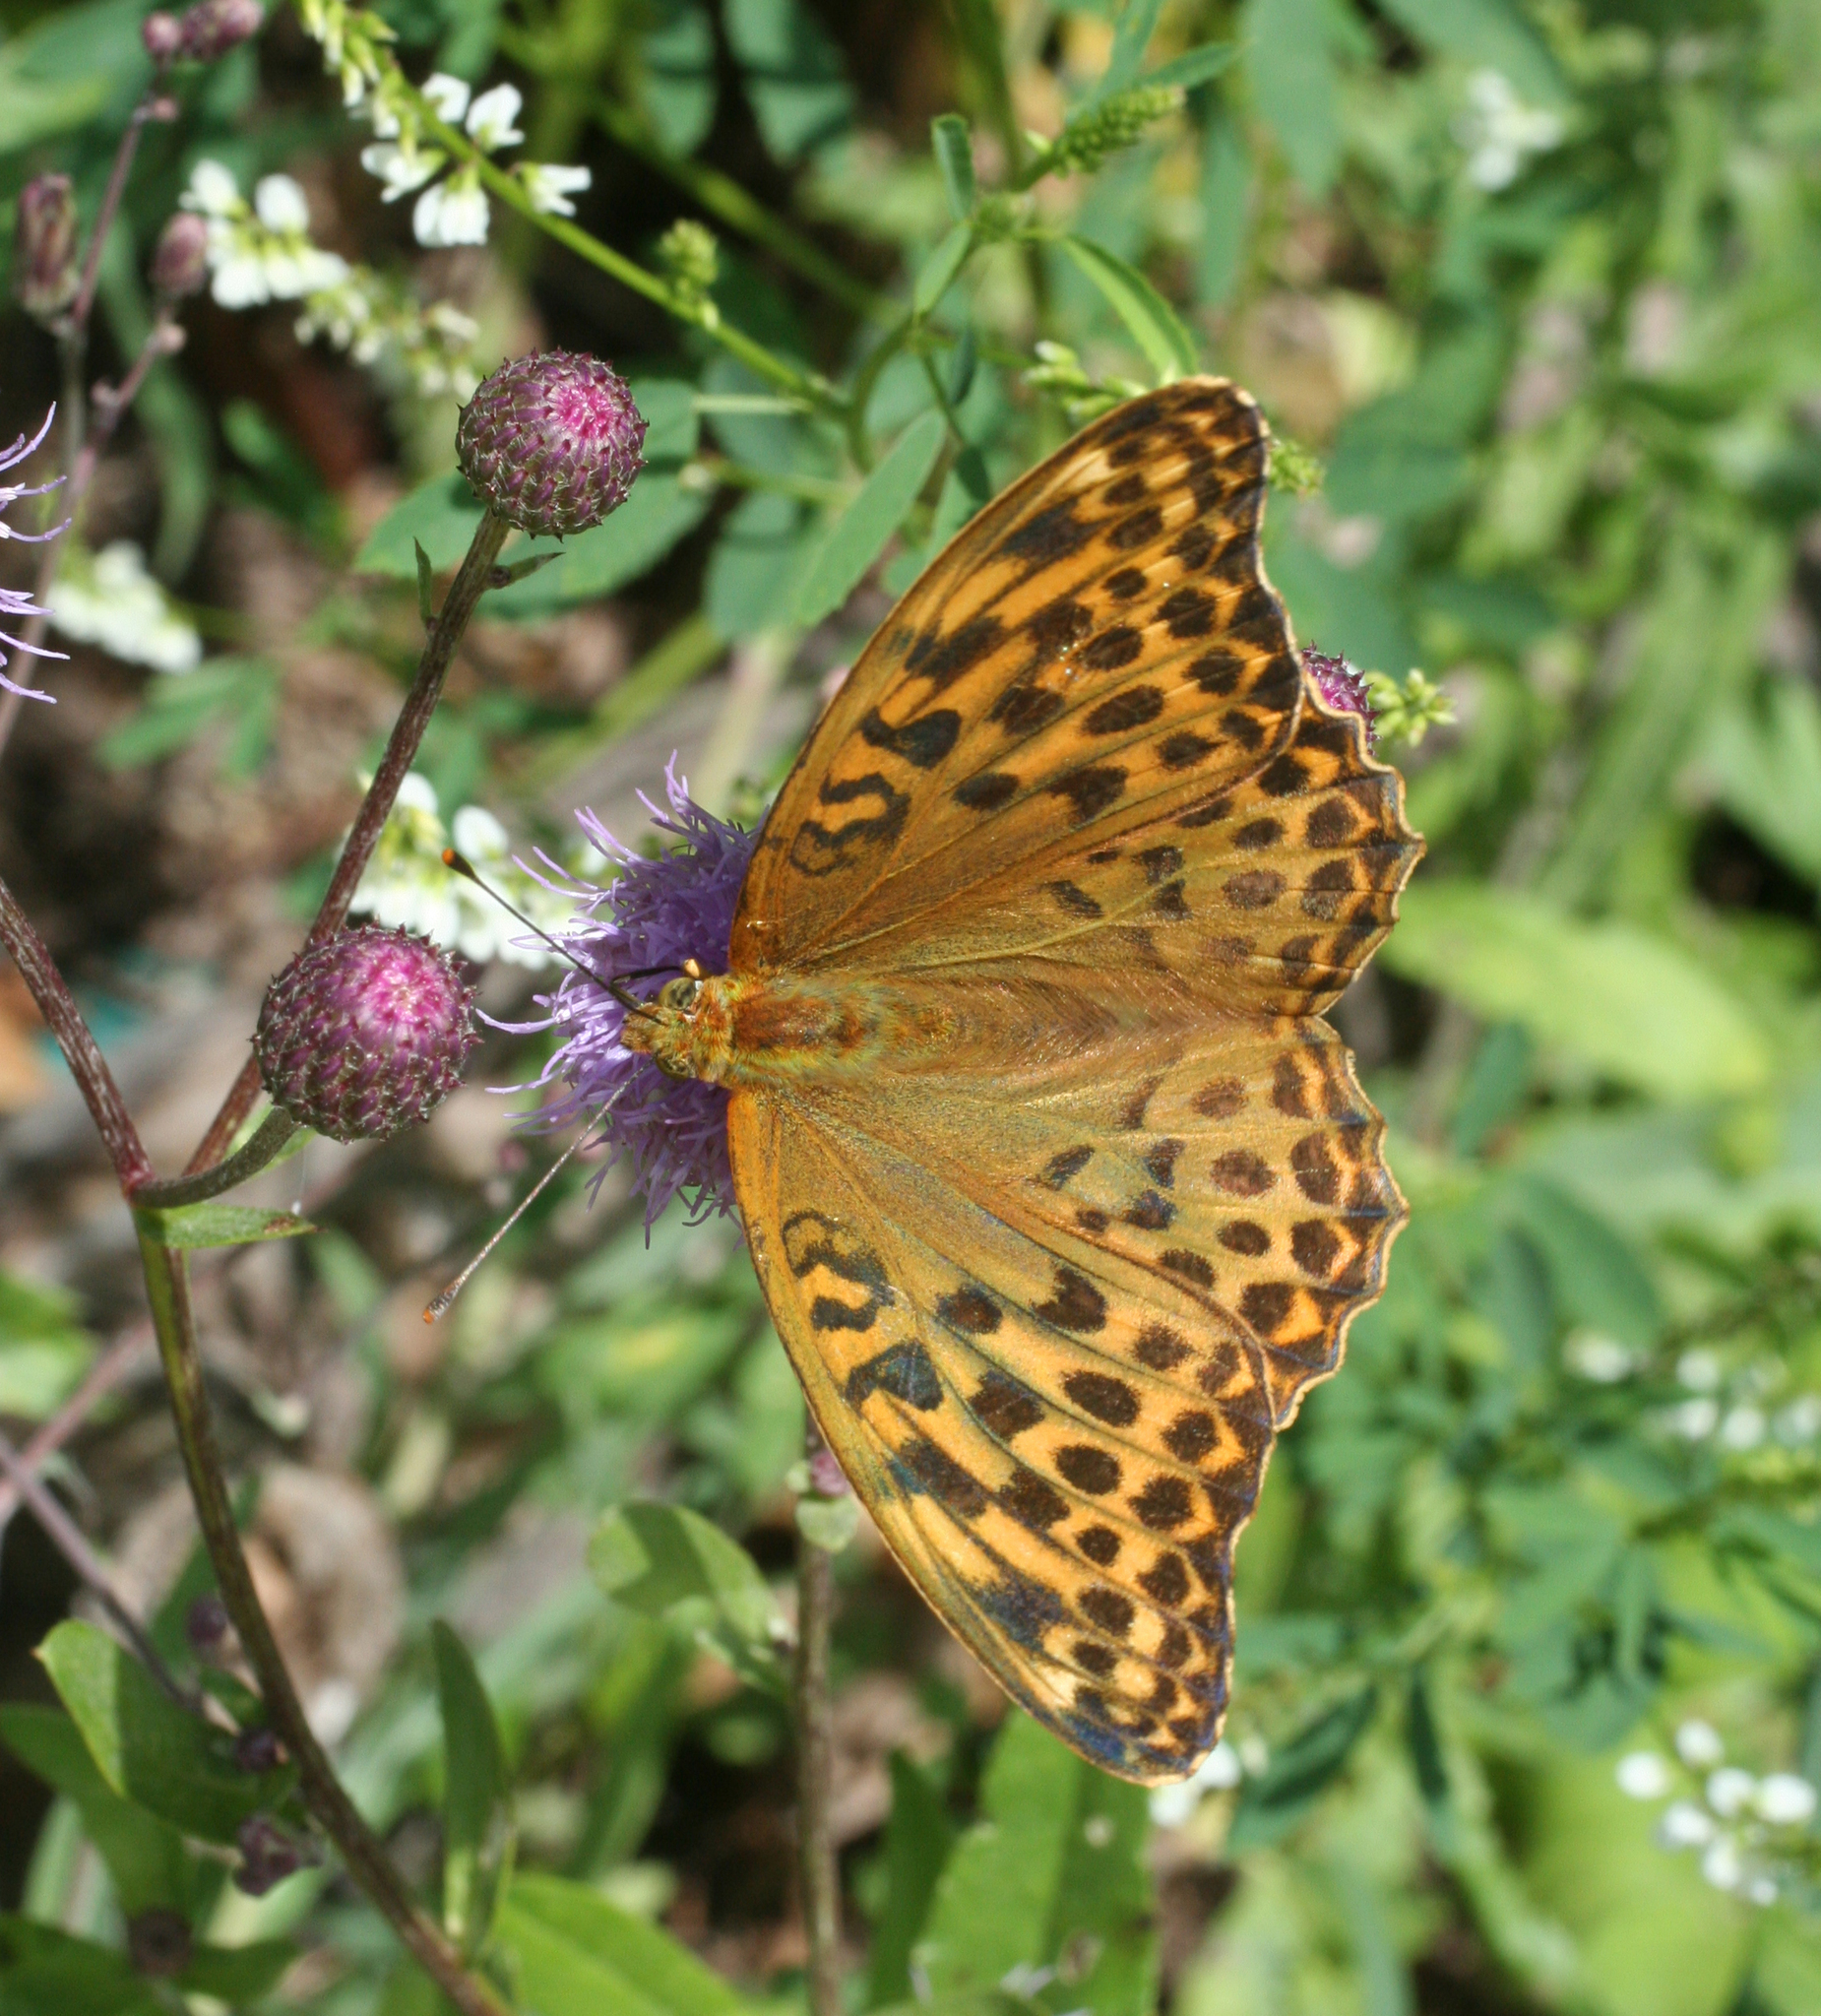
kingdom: Animalia
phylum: Arthropoda
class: Insecta
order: Lepidoptera
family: Nymphalidae
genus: Argynnis
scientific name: Argynnis paphia
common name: Silver-washed fritillary
